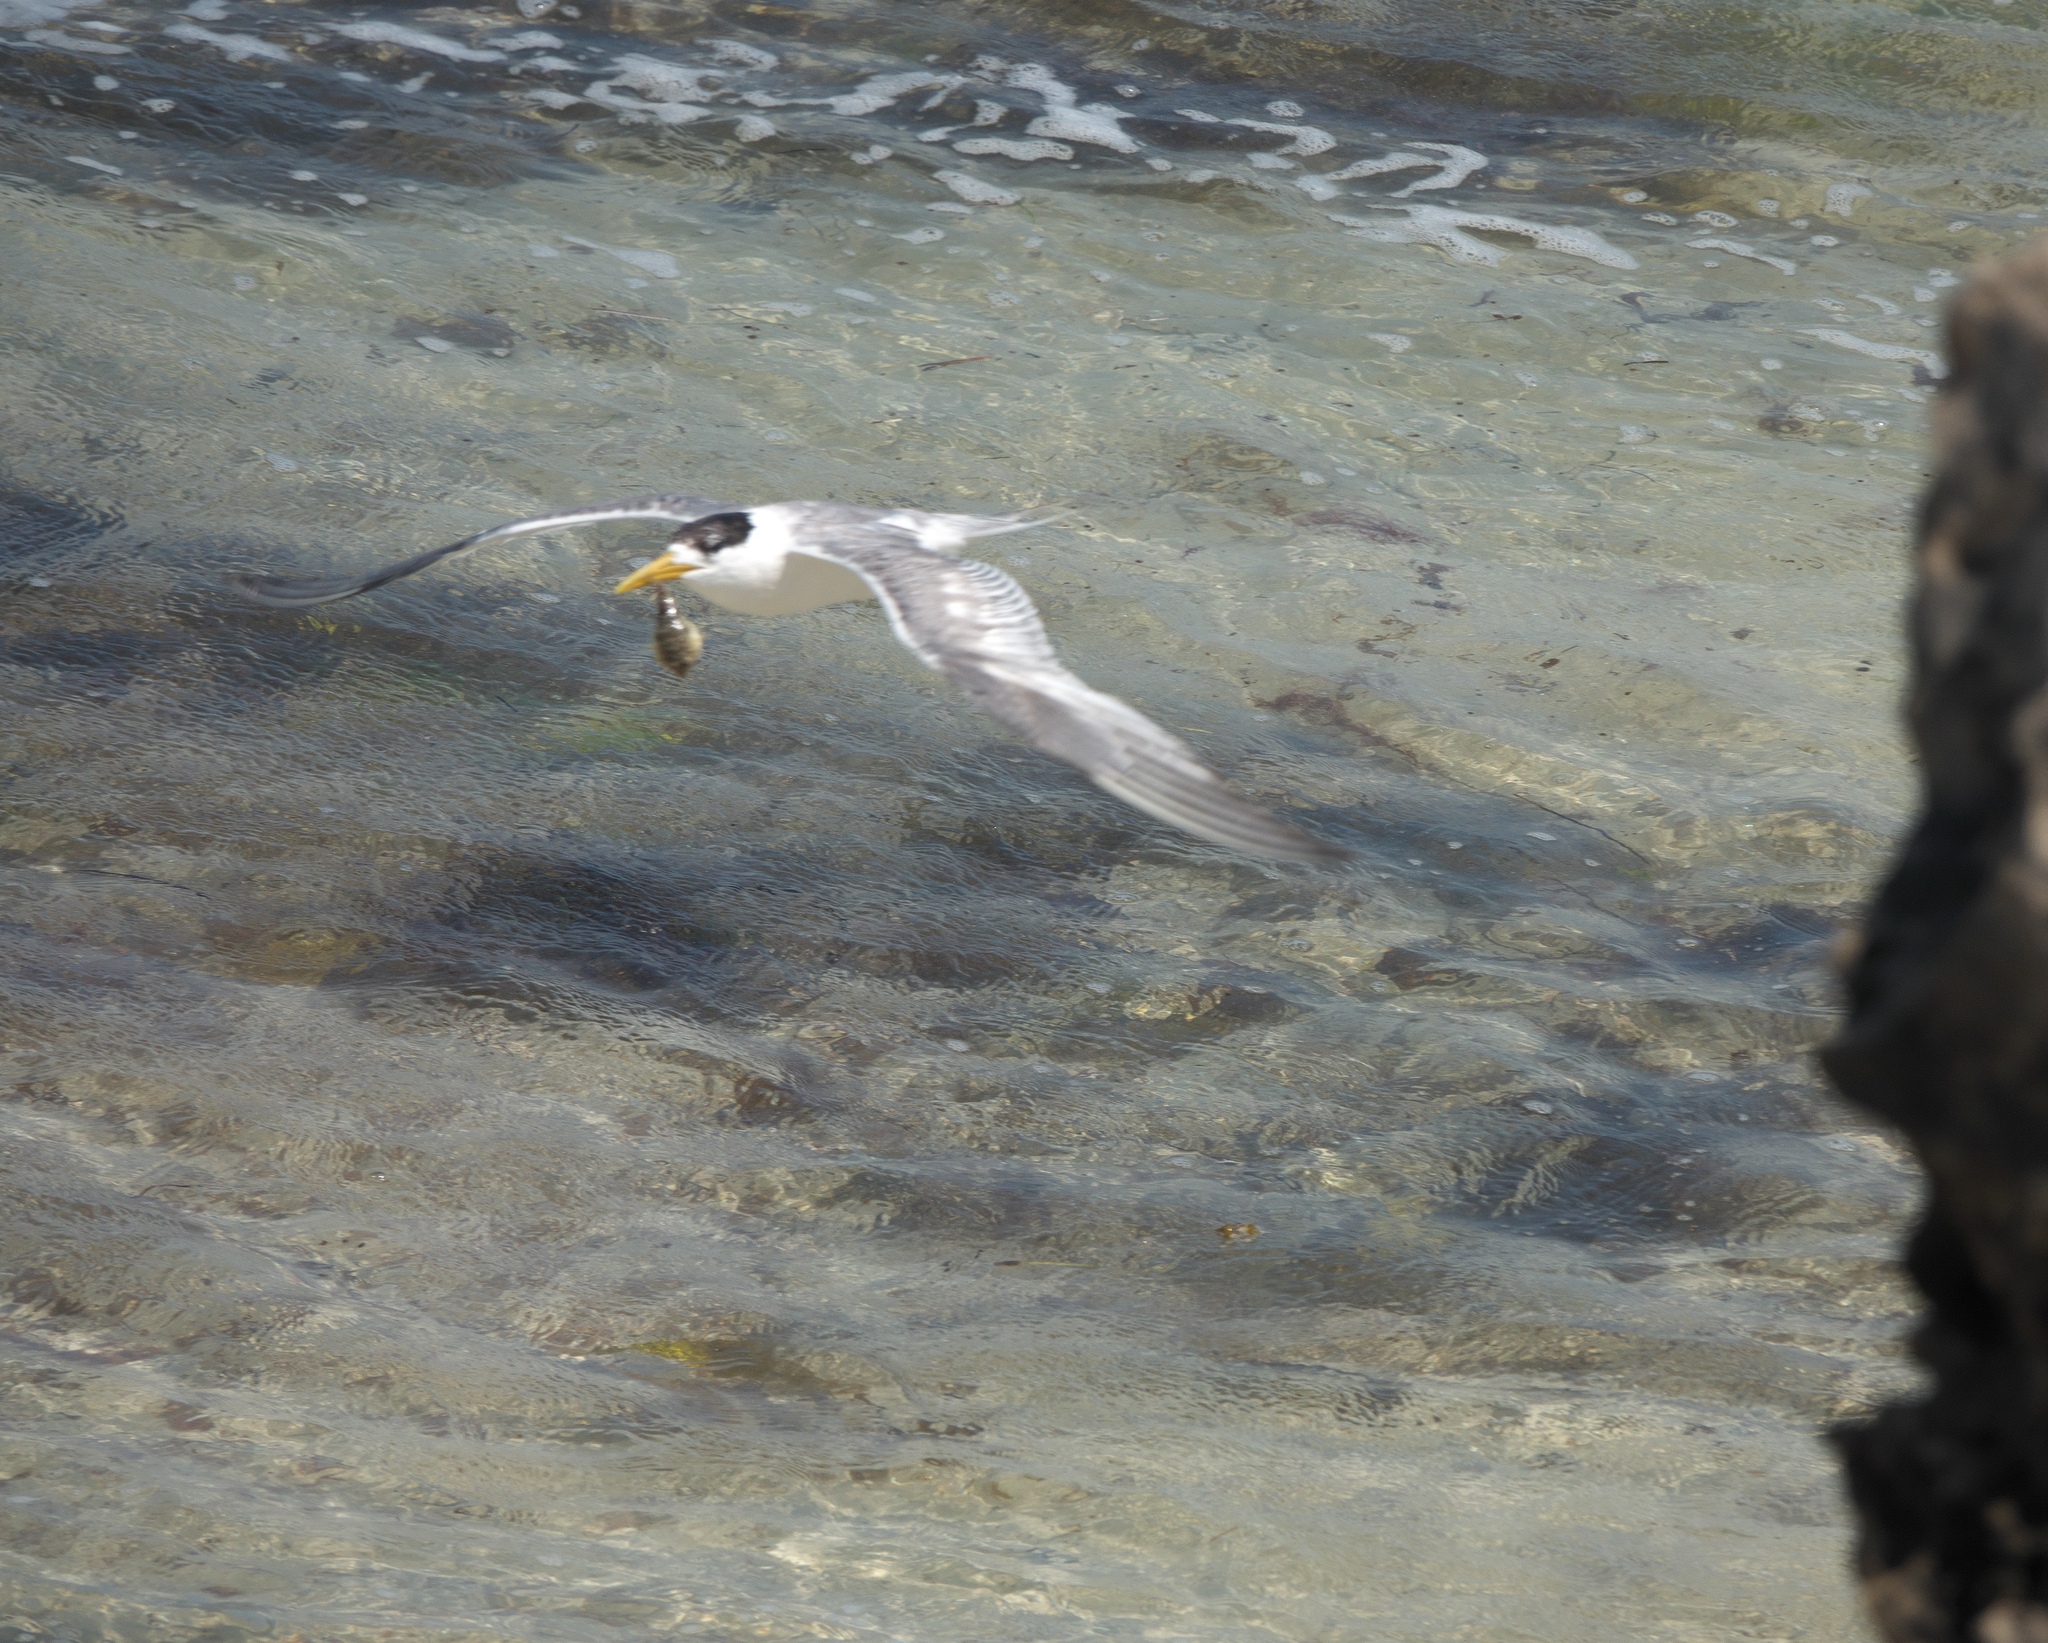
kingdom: Animalia
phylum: Chordata
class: Aves
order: Charadriiformes
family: Laridae
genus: Thalasseus
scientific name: Thalasseus bergii
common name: Greater crested tern
